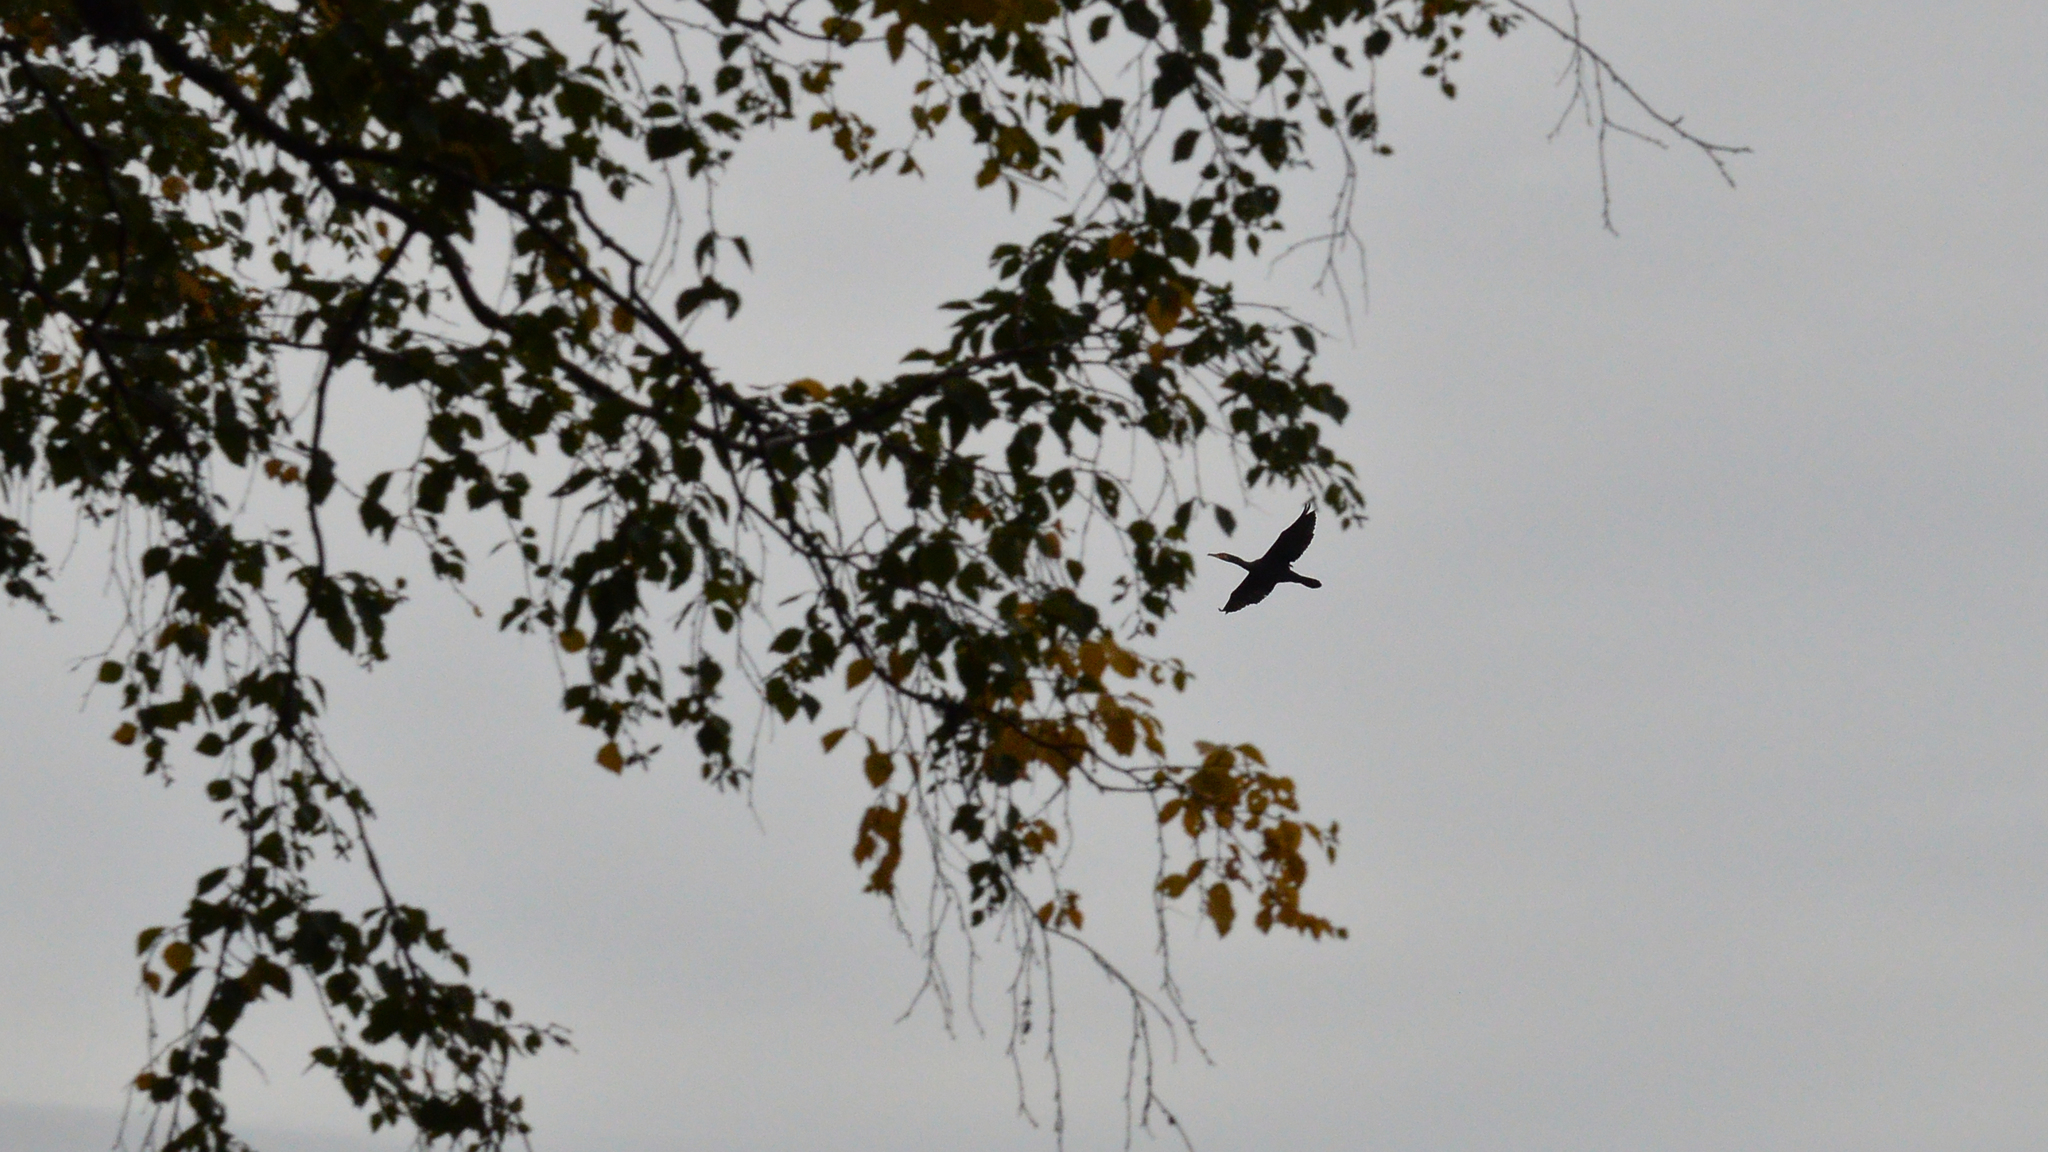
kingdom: Animalia
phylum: Chordata
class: Aves
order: Suliformes
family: Phalacrocoracidae
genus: Phalacrocorax
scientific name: Phalacrocorax carbo
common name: Great cormorant
